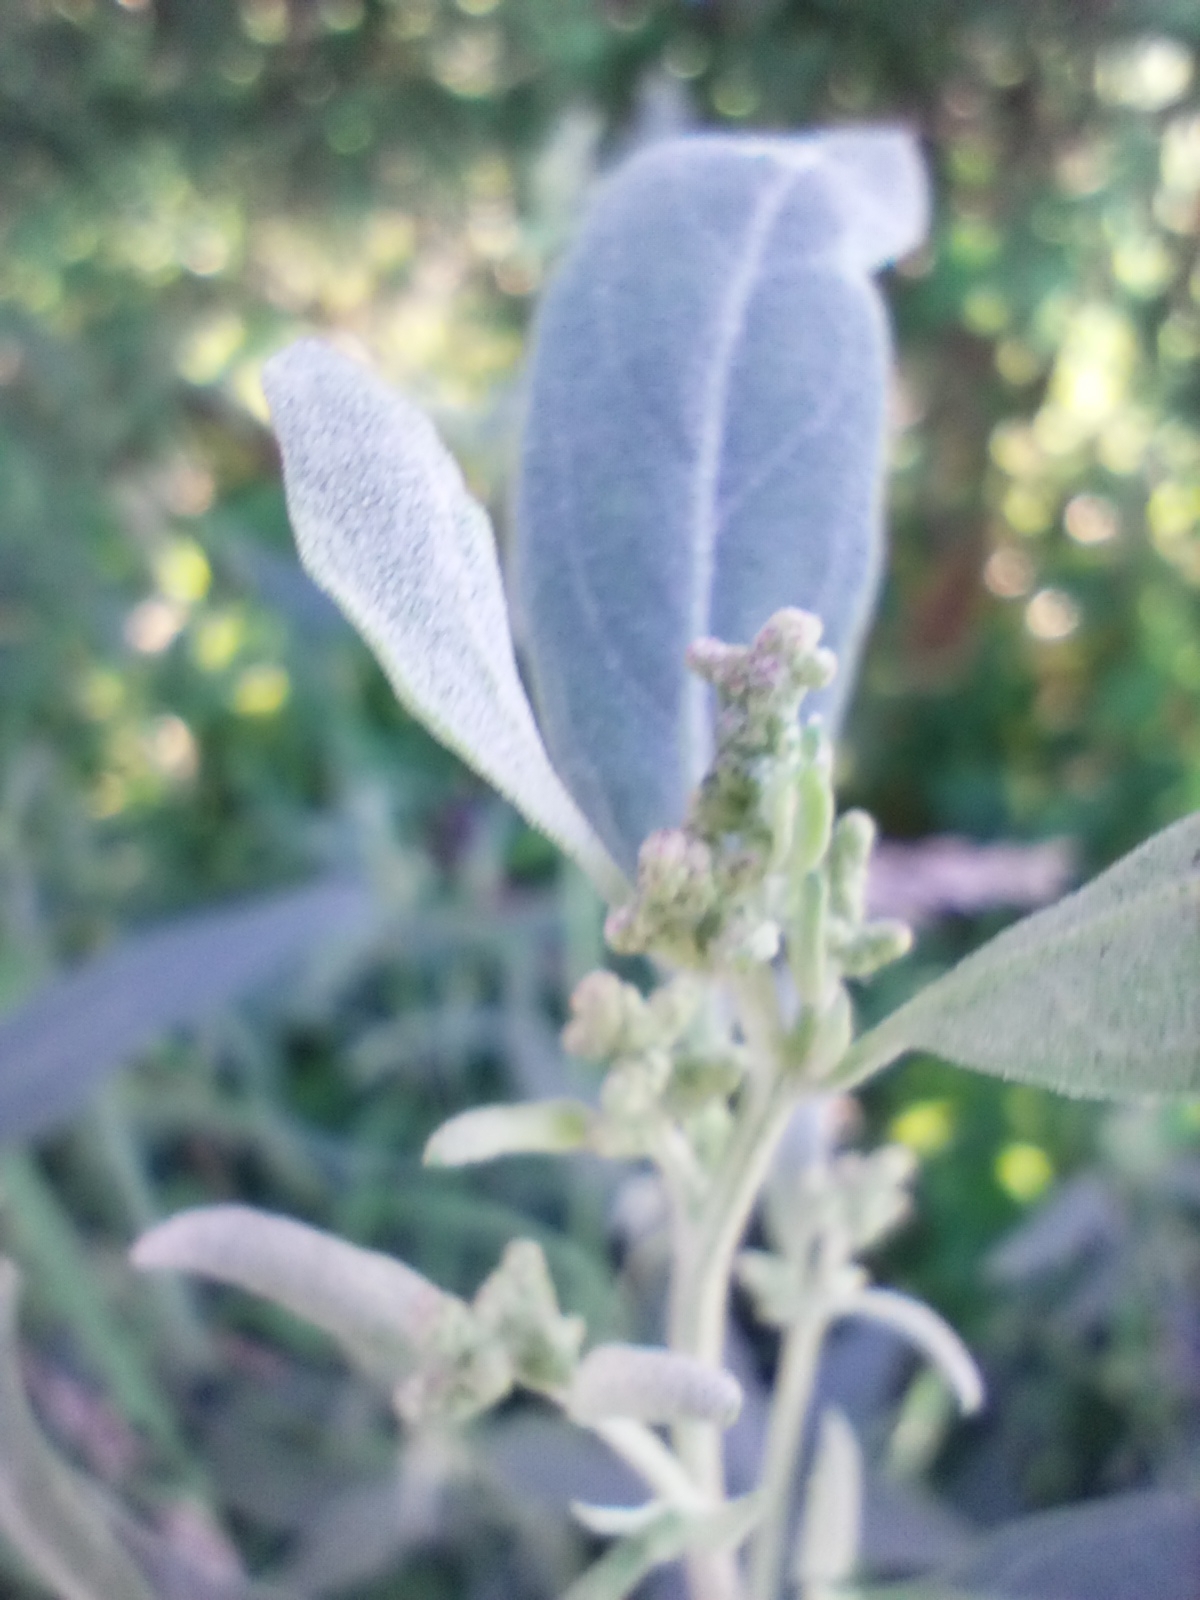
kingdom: Plantae
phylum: Tracheophyta
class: Magnoliopsida
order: Caryophyllales
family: Amaranthaceae
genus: Atriplex
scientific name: Atriplex oblongifolia
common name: Oblongleaf orache
